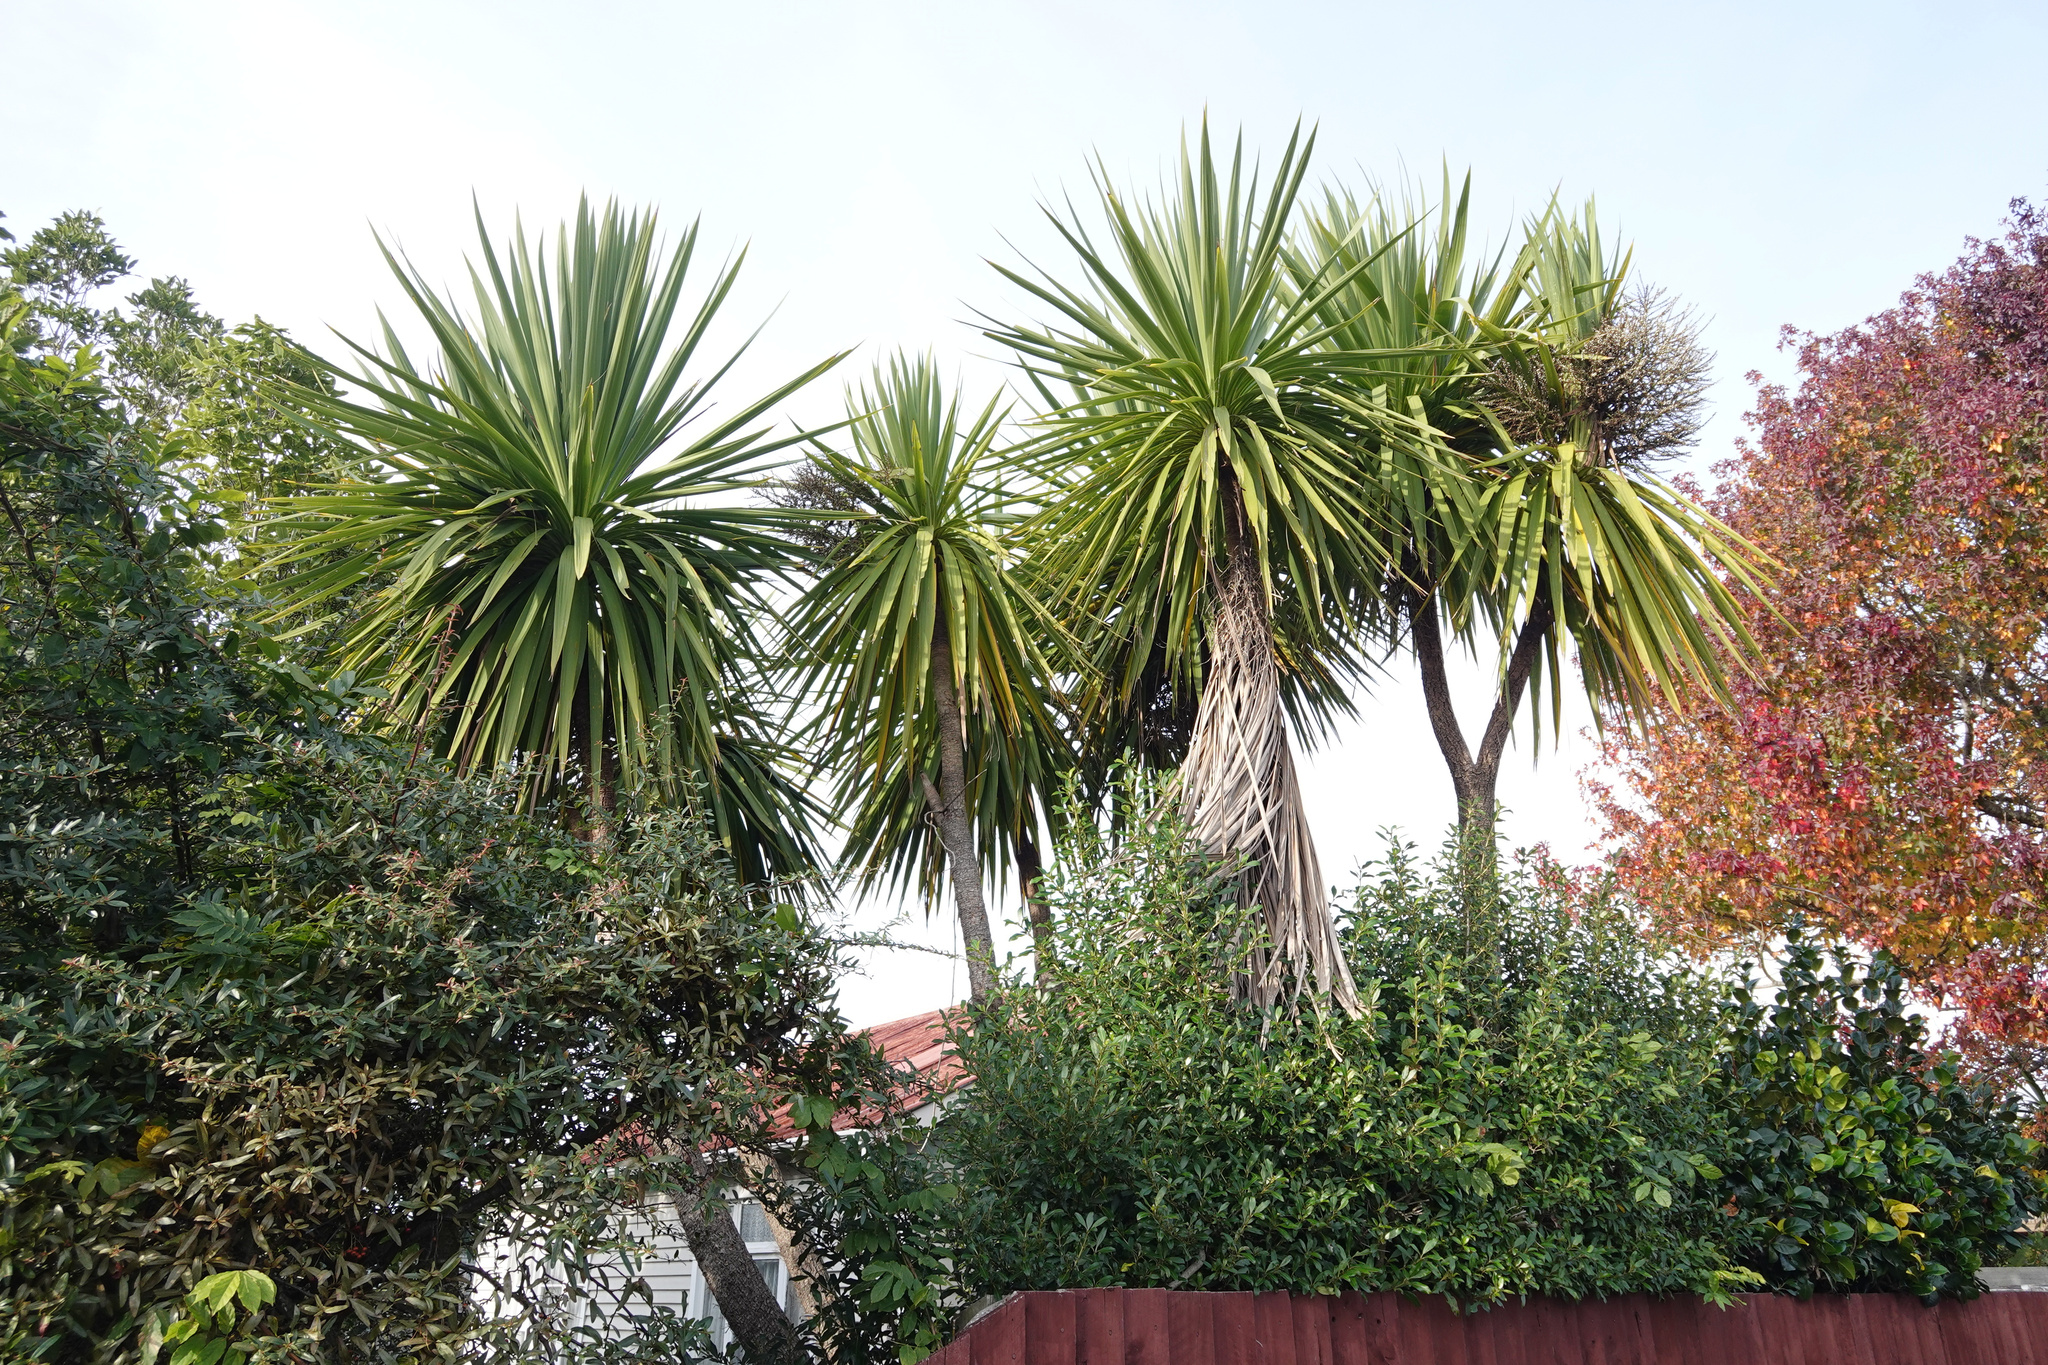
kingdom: Plantae
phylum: Tracheophyta
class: Liliopsida
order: Asparagales
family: Asparagaceae
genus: Cordyline
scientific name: Cordyline australis
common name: Cabbage-palm
